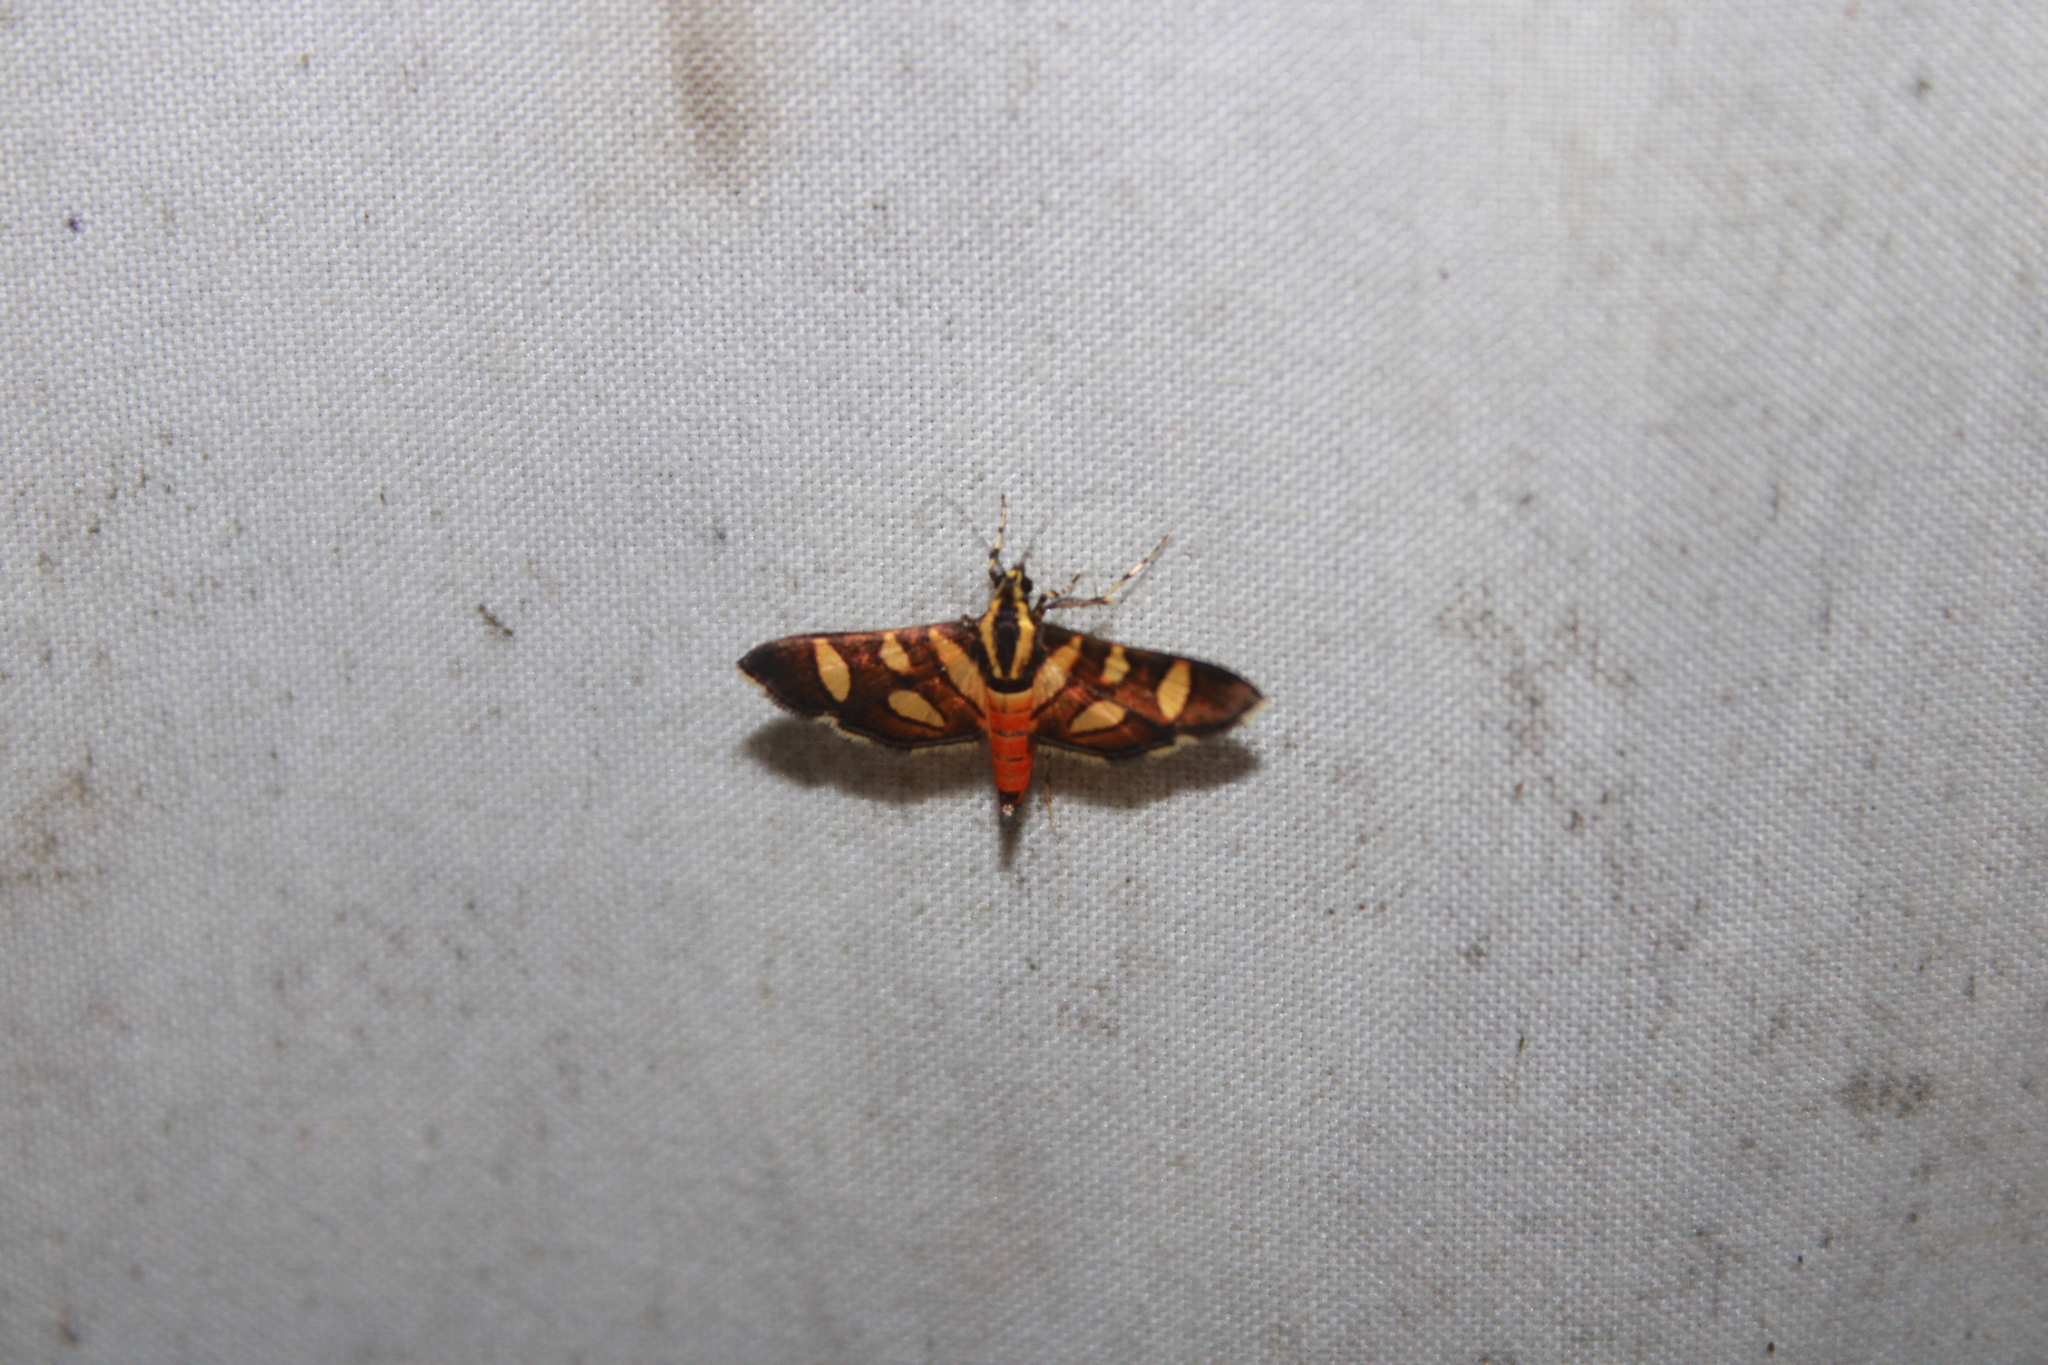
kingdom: Animalia
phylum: Arthropoda
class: Insecta
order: Lepidoptera
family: Crambidae
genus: Syngamia
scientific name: Syngamia florella
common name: Orange-spotted flower moth
